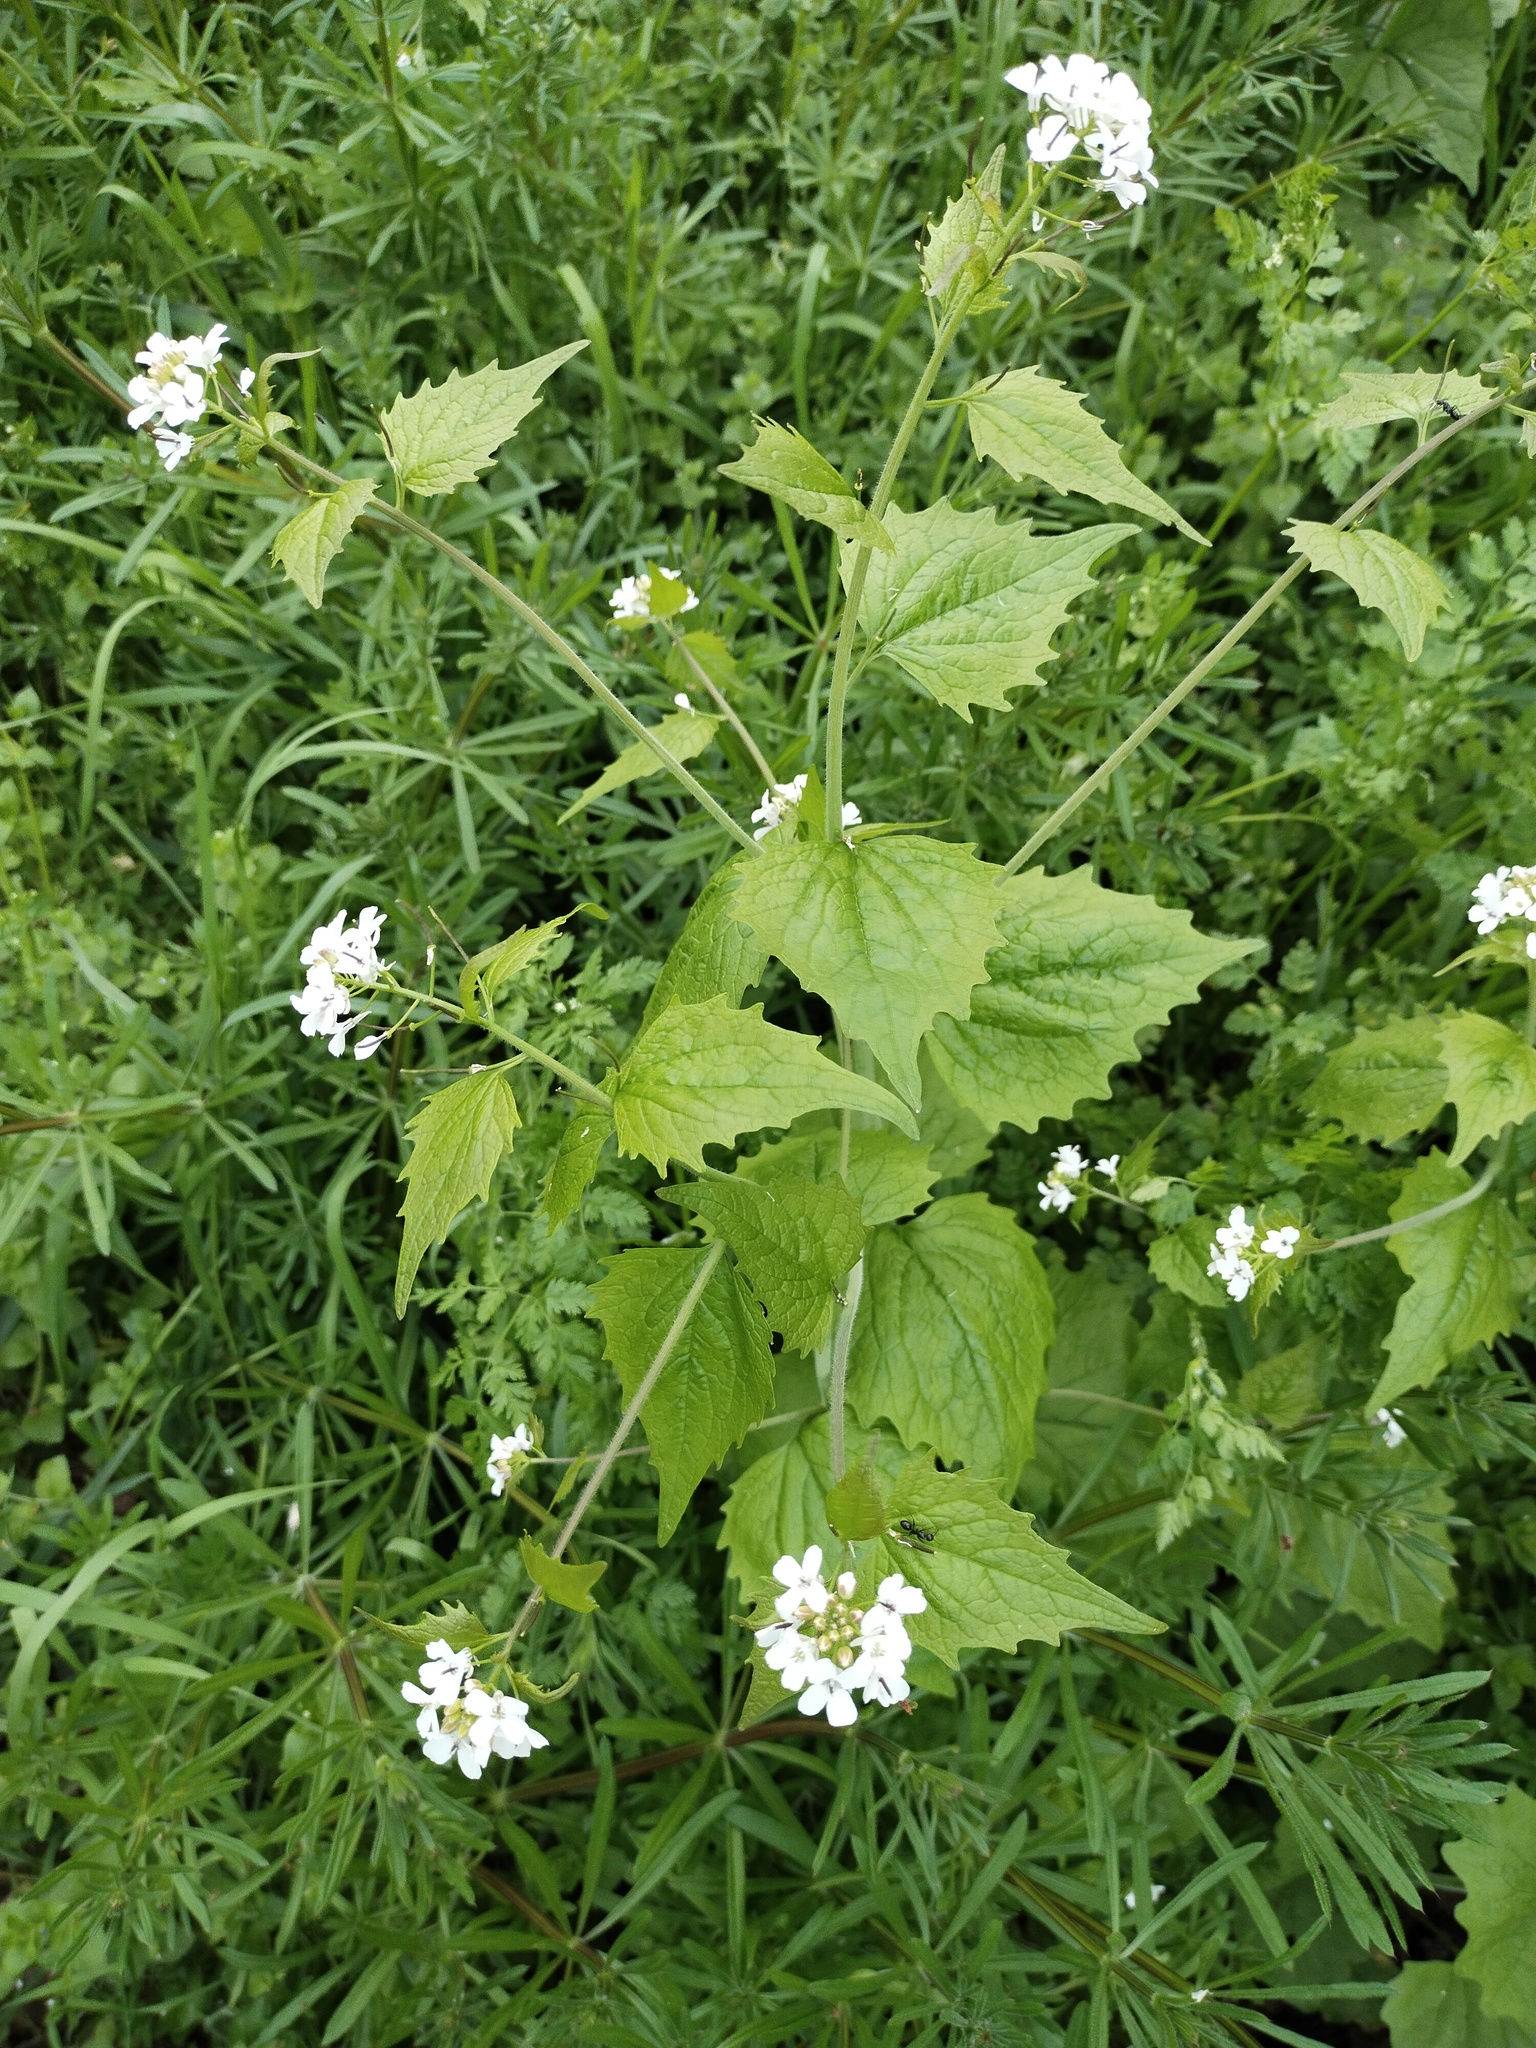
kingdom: Plantae
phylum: Tracheophyta
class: Magnoliopsida
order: Brassicales
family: Brassicaceae
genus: Alliaria
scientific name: Alliaria petiolata
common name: Garlic mustard
